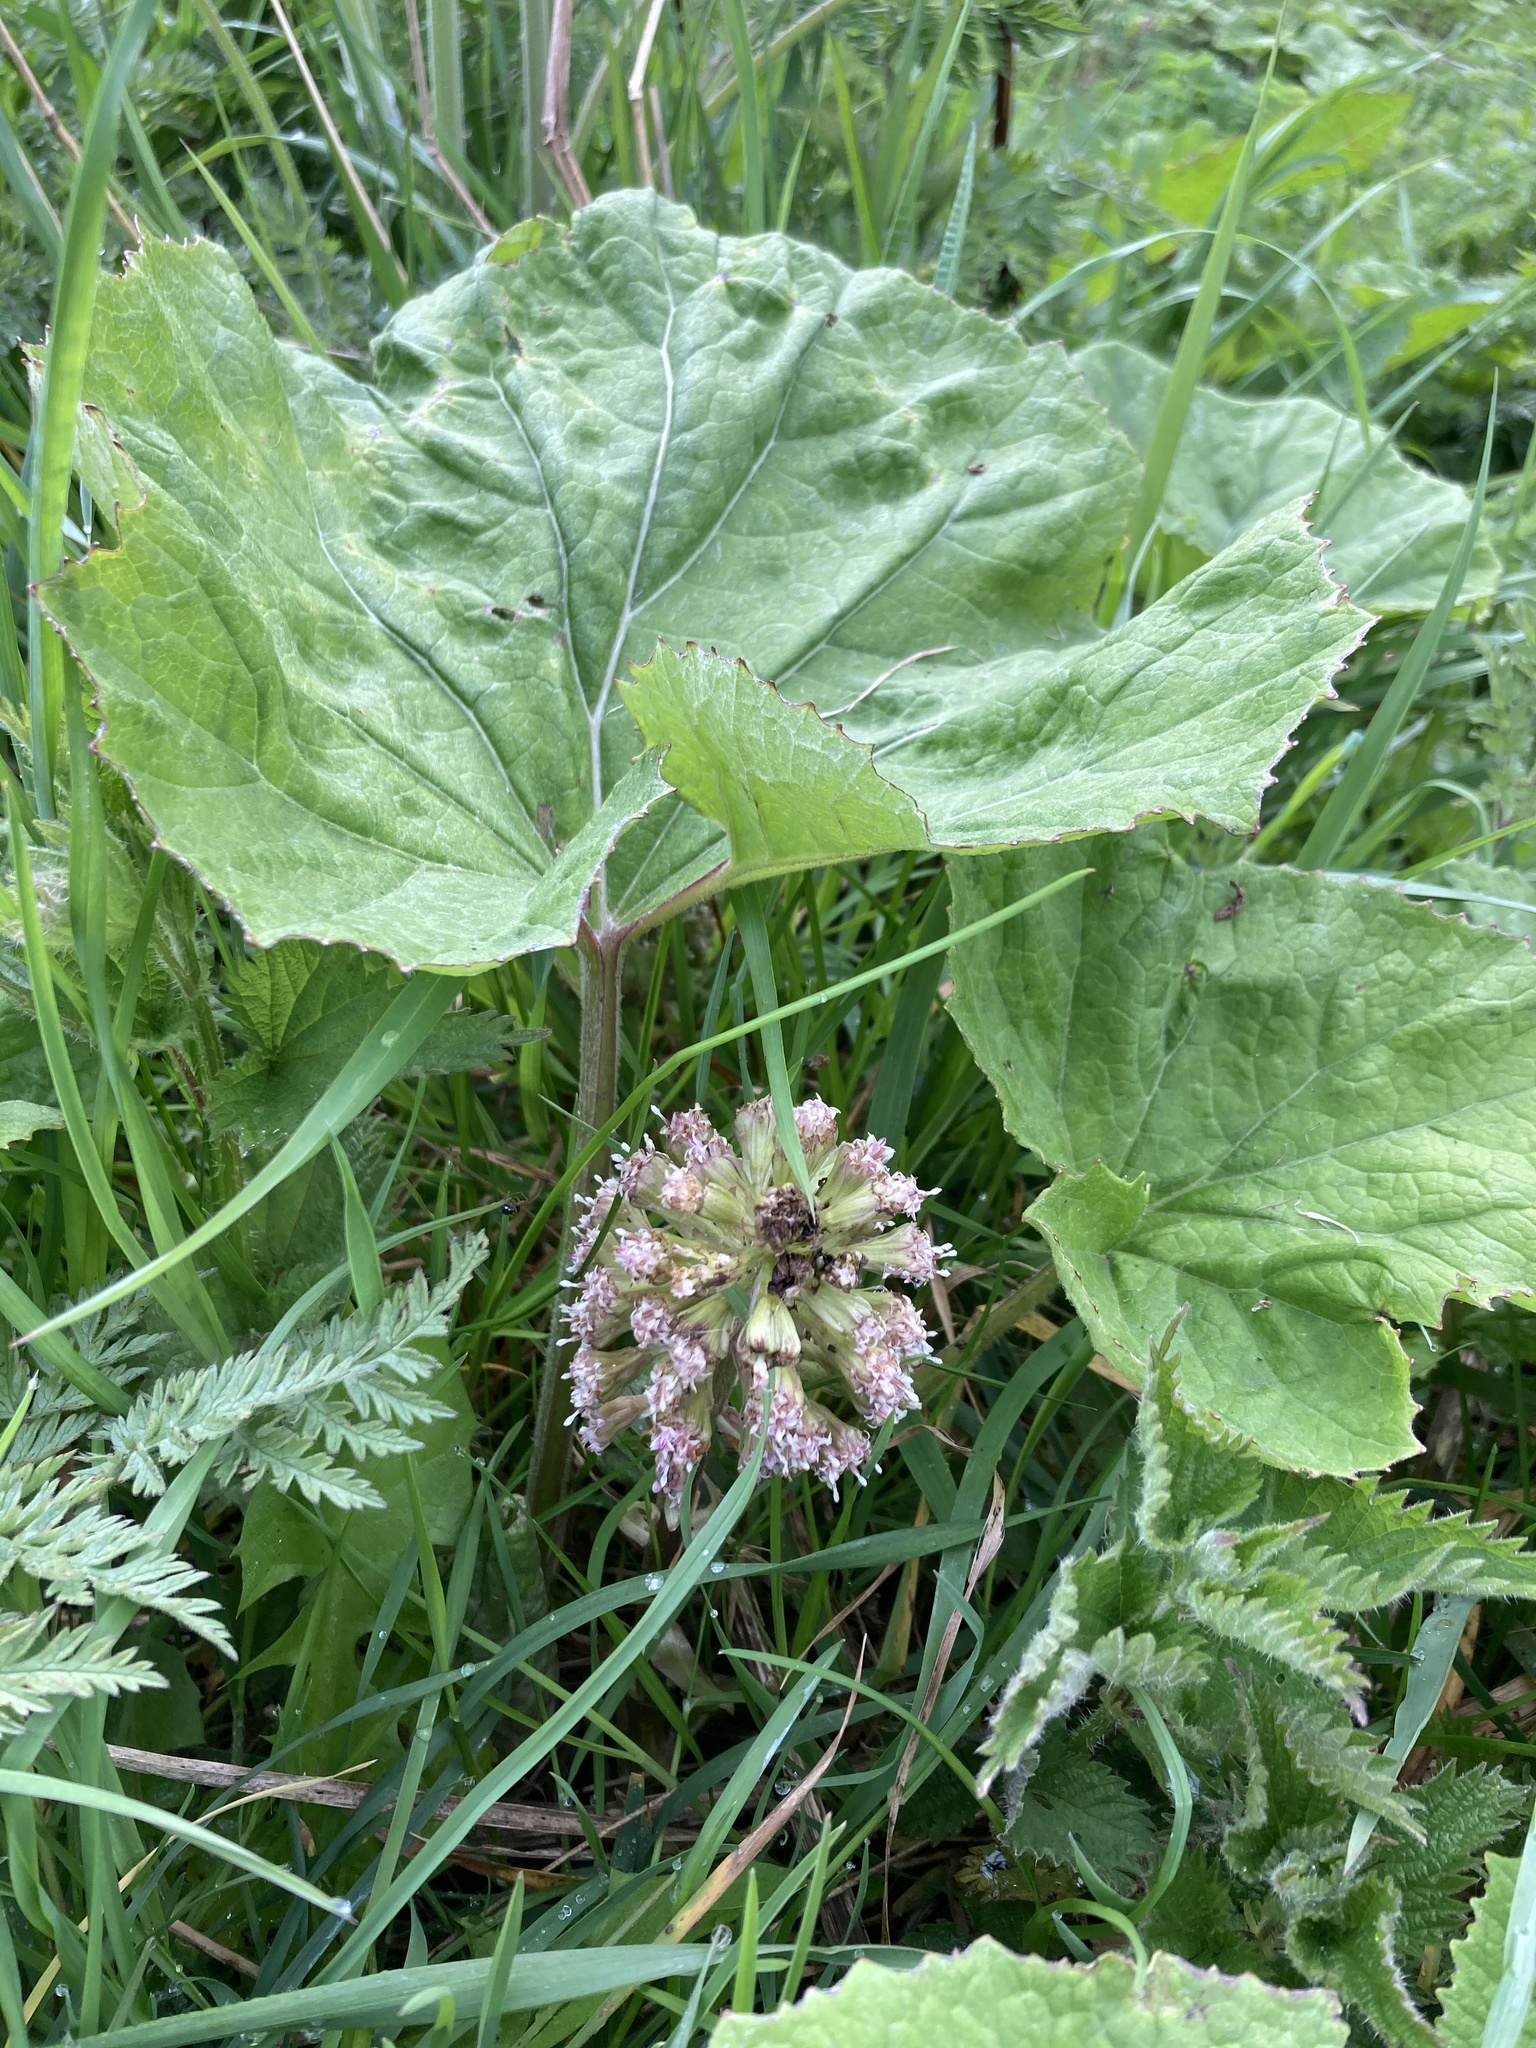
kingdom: Plantae
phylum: Tracheophyta
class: Magnoliopsida
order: Asterales
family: Asteraceae
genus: Petasites
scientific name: Petasites hybridus
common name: Butterbur
